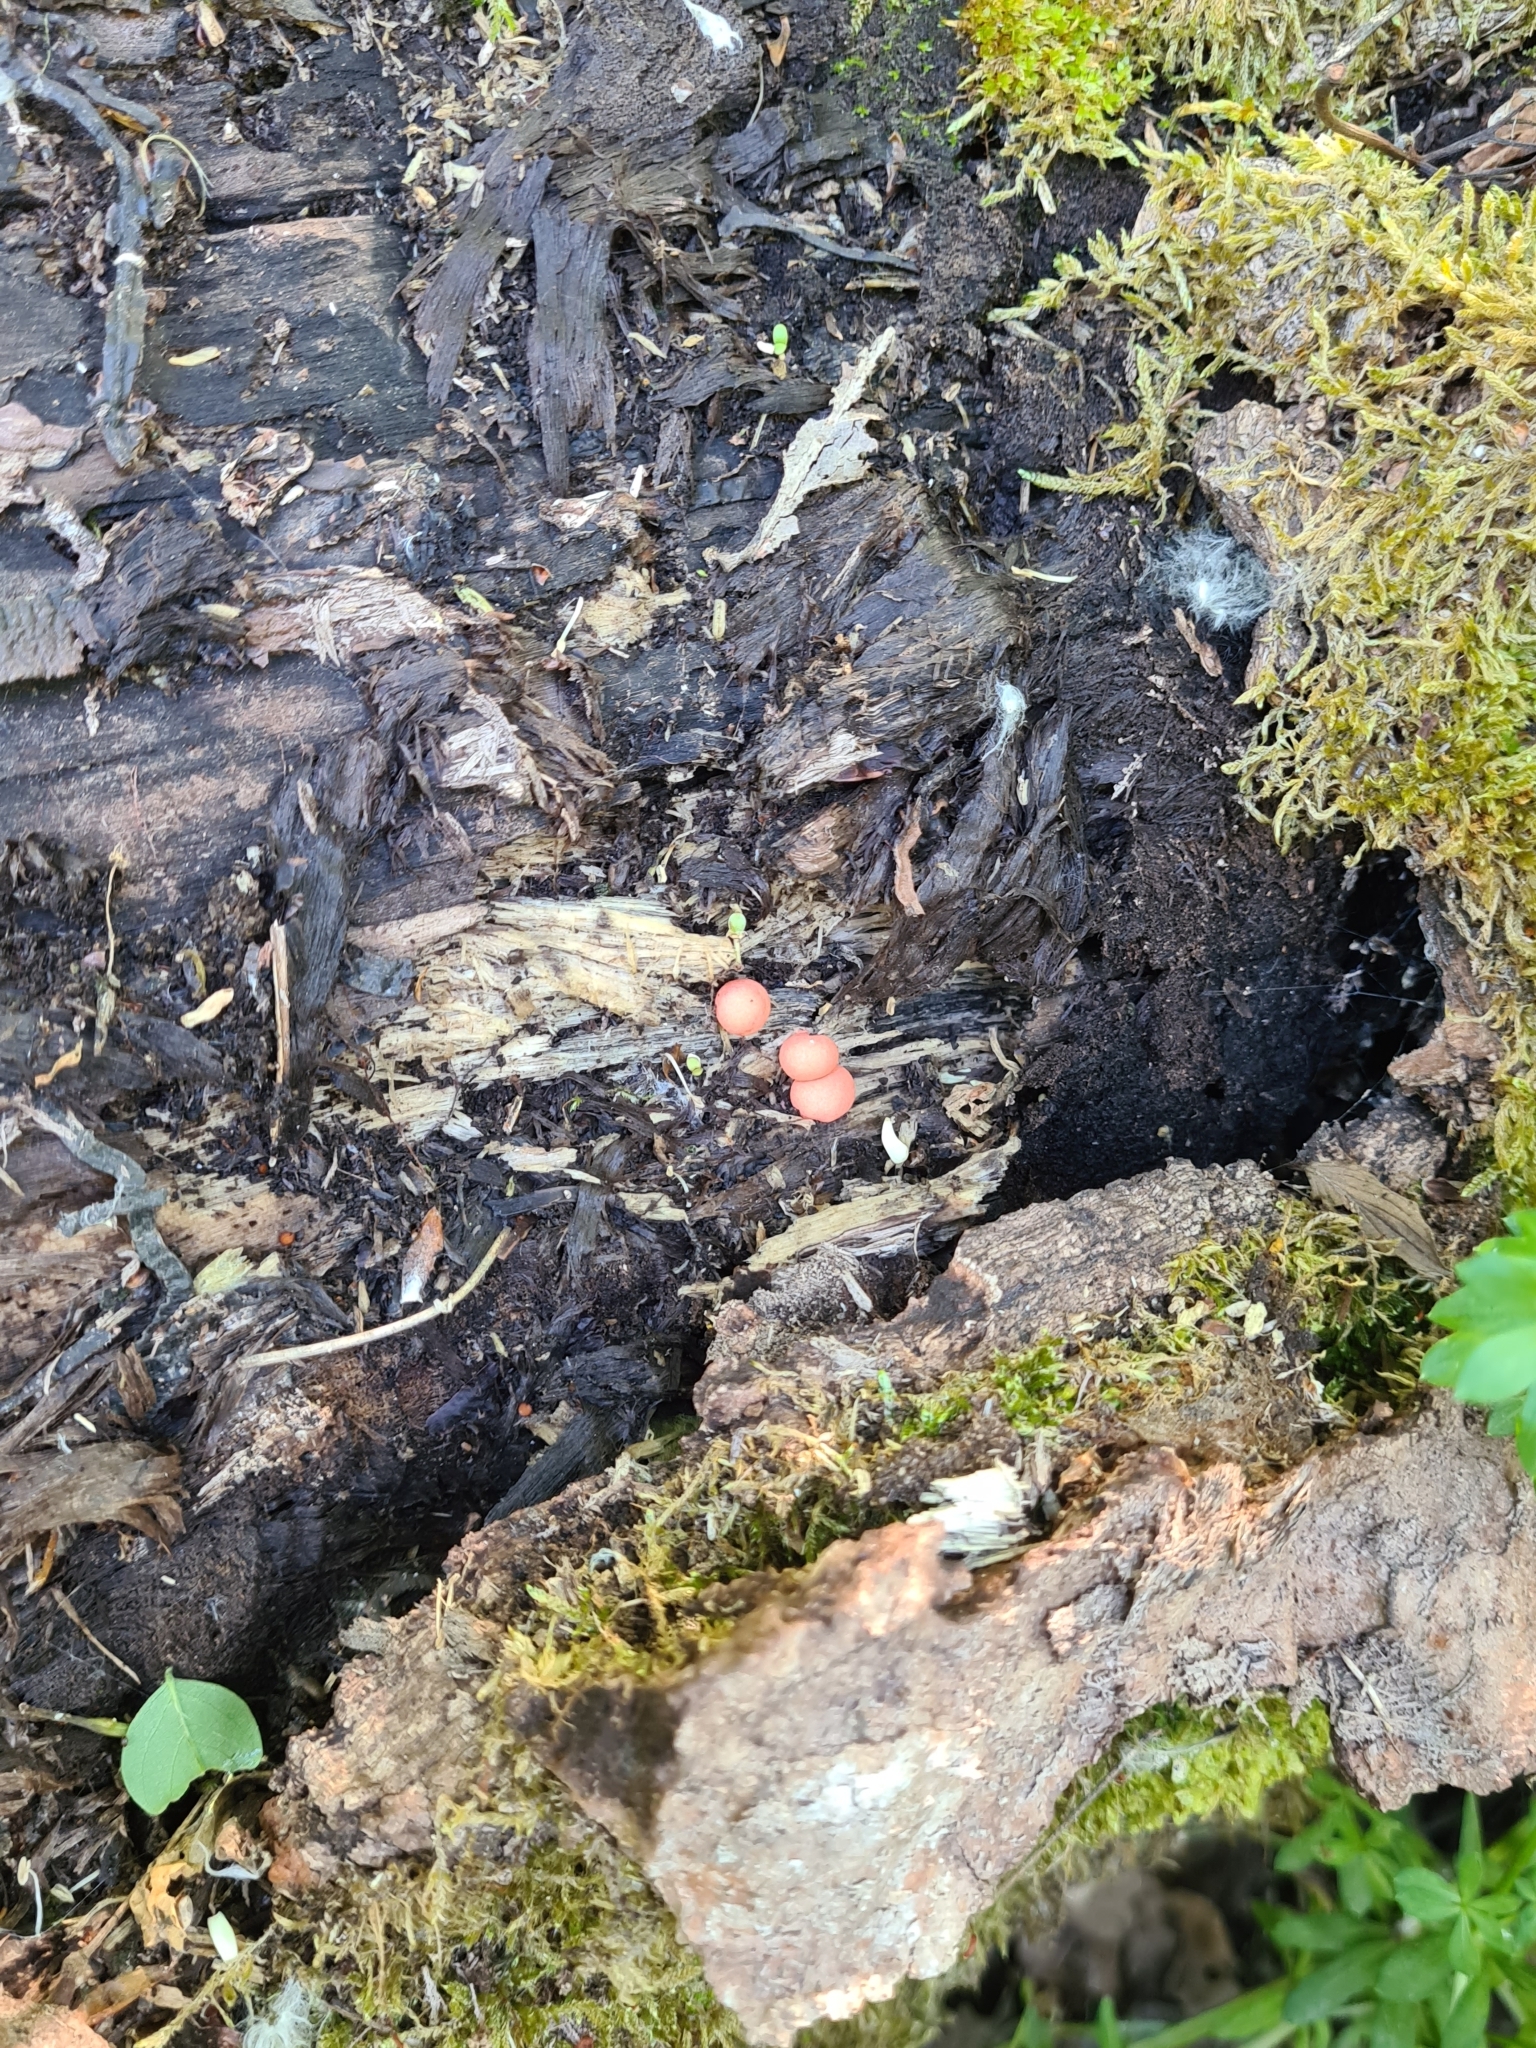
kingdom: Protozoa
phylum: Mycetozoa
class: Myxomycetes
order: Cribrariales
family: Tubiferaceae
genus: Lycogala
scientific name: Lycogala epidendrum
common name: Wolf's milk
